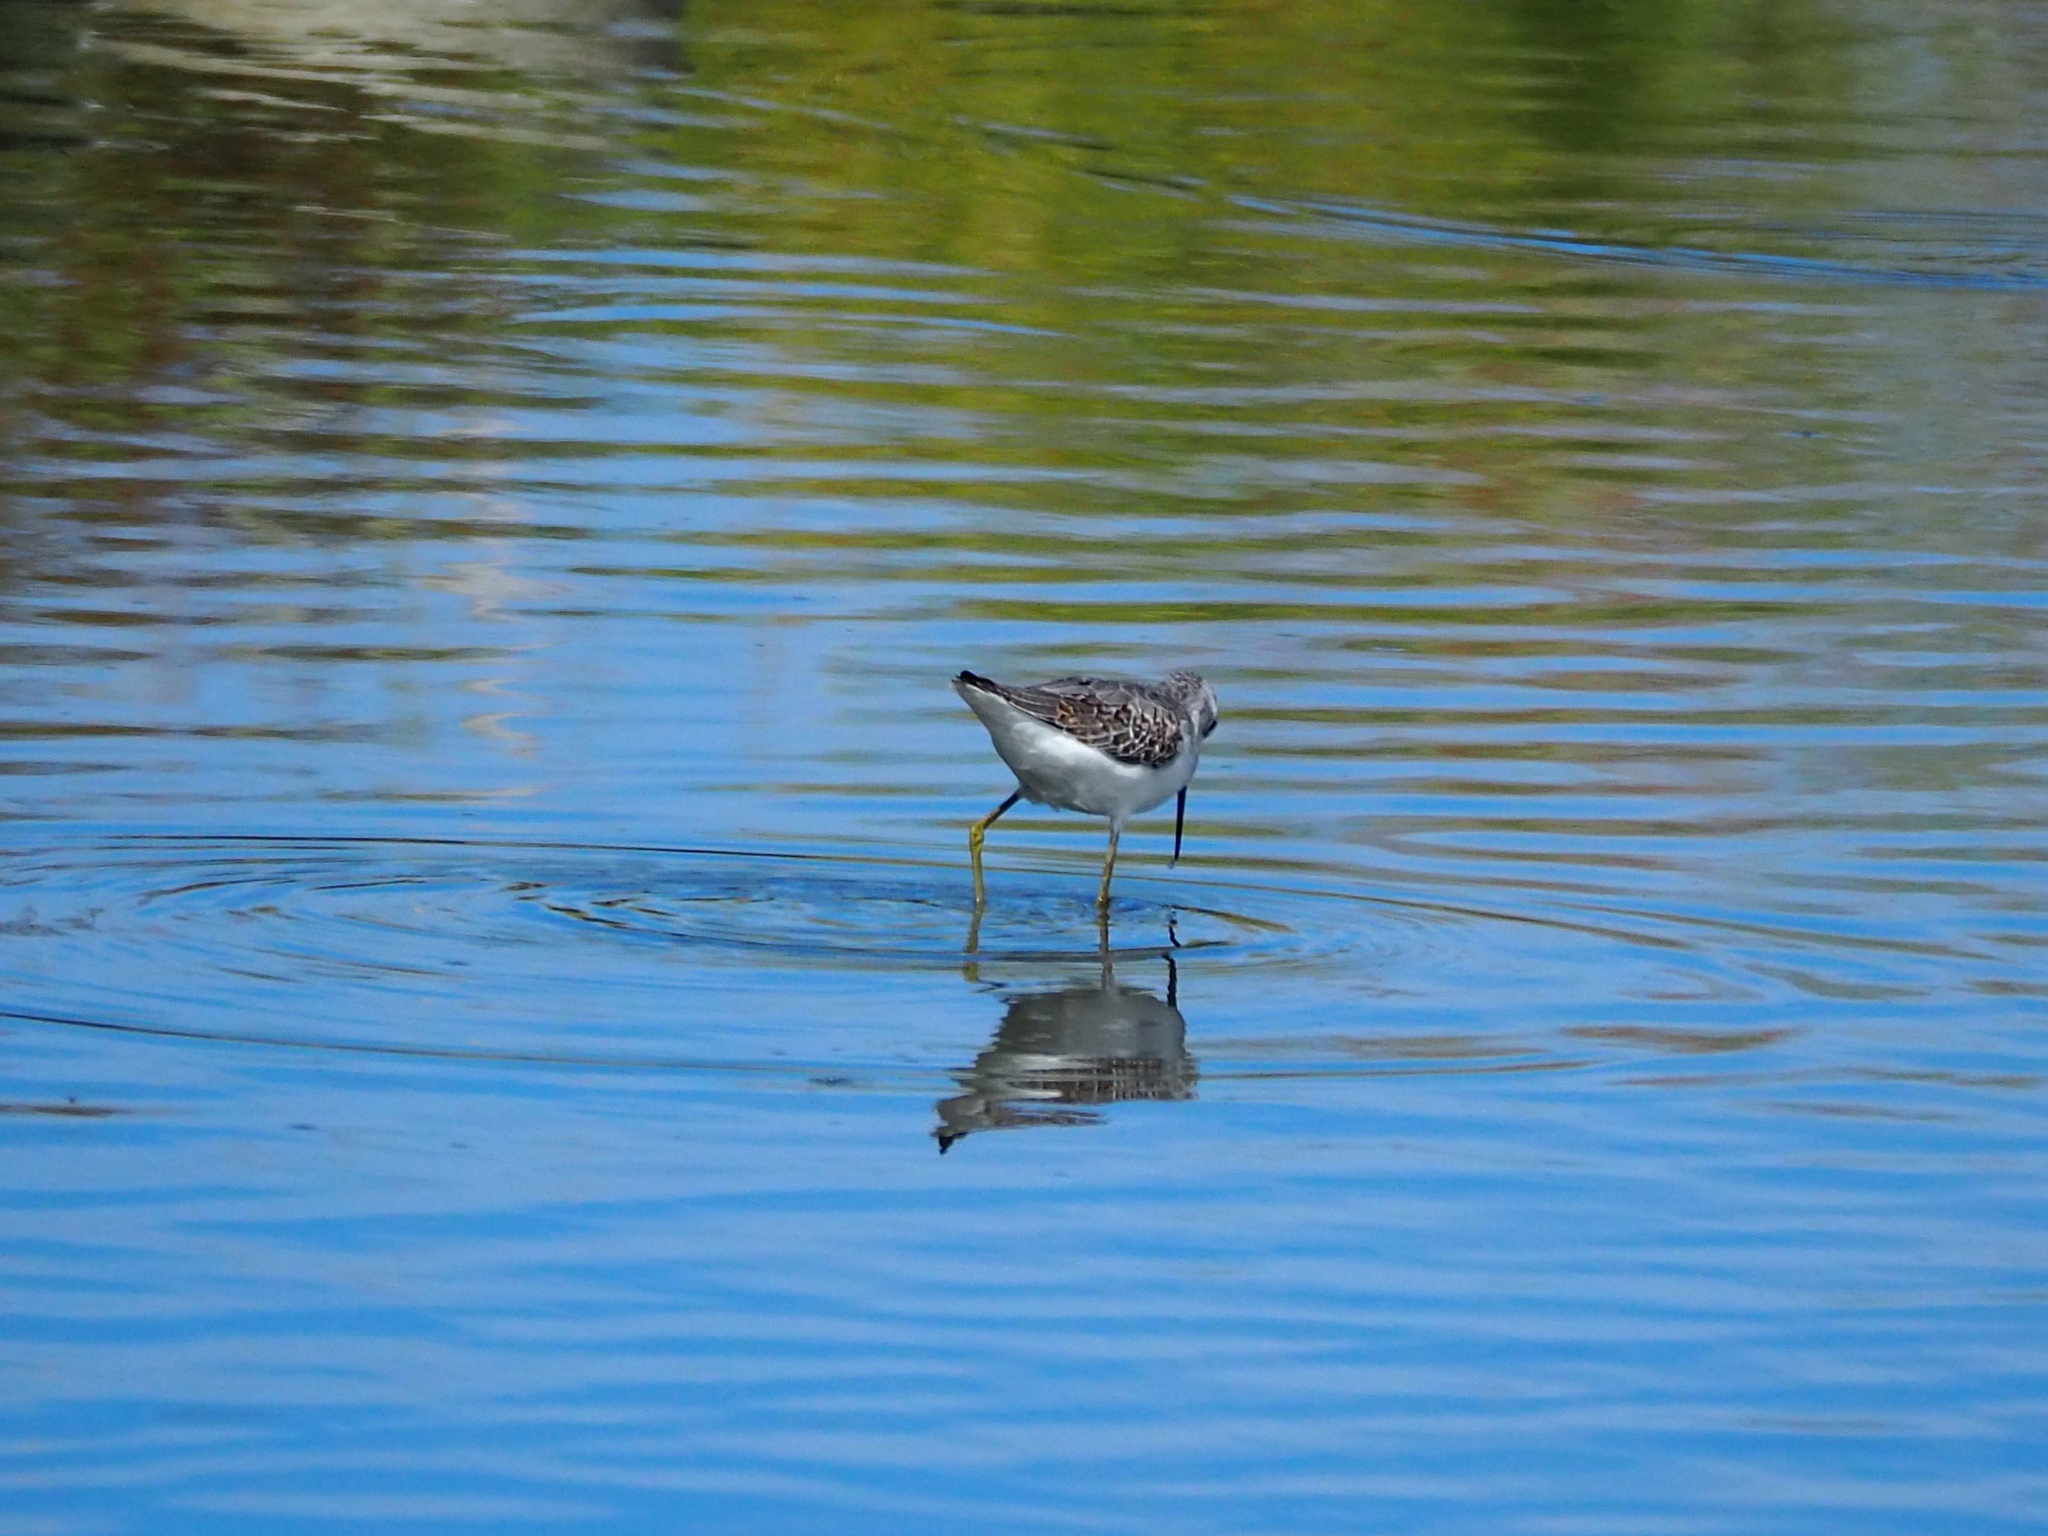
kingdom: Animalia
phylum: Chordata
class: Aves
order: Charadriiformes
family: Scolopacidae
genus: Tringa
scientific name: Tringa stagnatilis
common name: Marsh sandpiper
